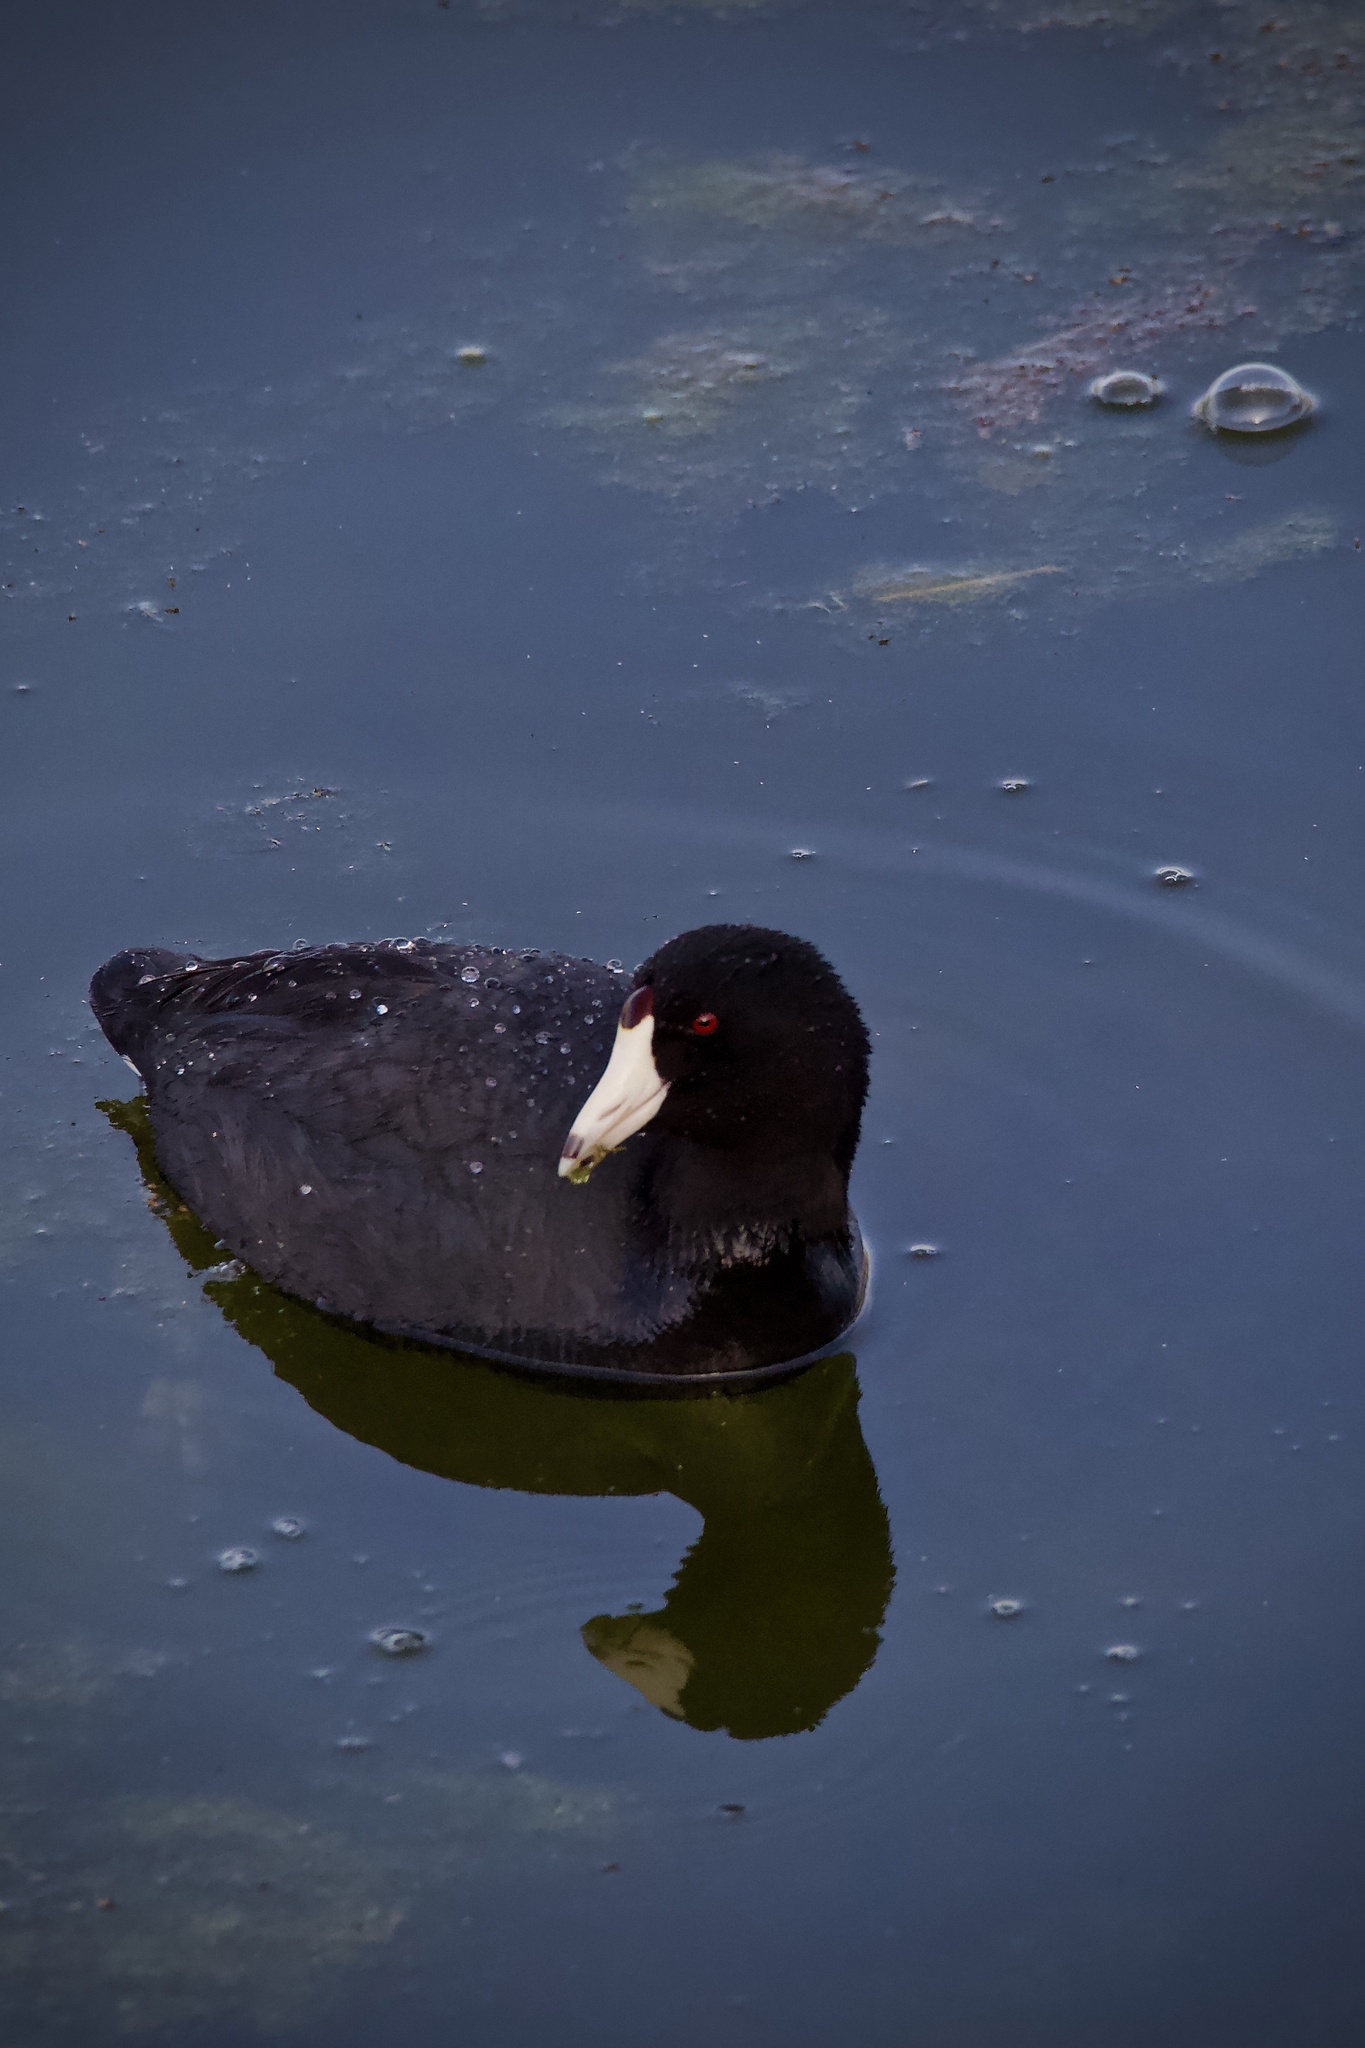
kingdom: Animalia
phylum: Chordata
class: Aves
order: Gruiformes
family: Rallidae
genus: Fulica
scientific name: Fulica americana
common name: American coot
